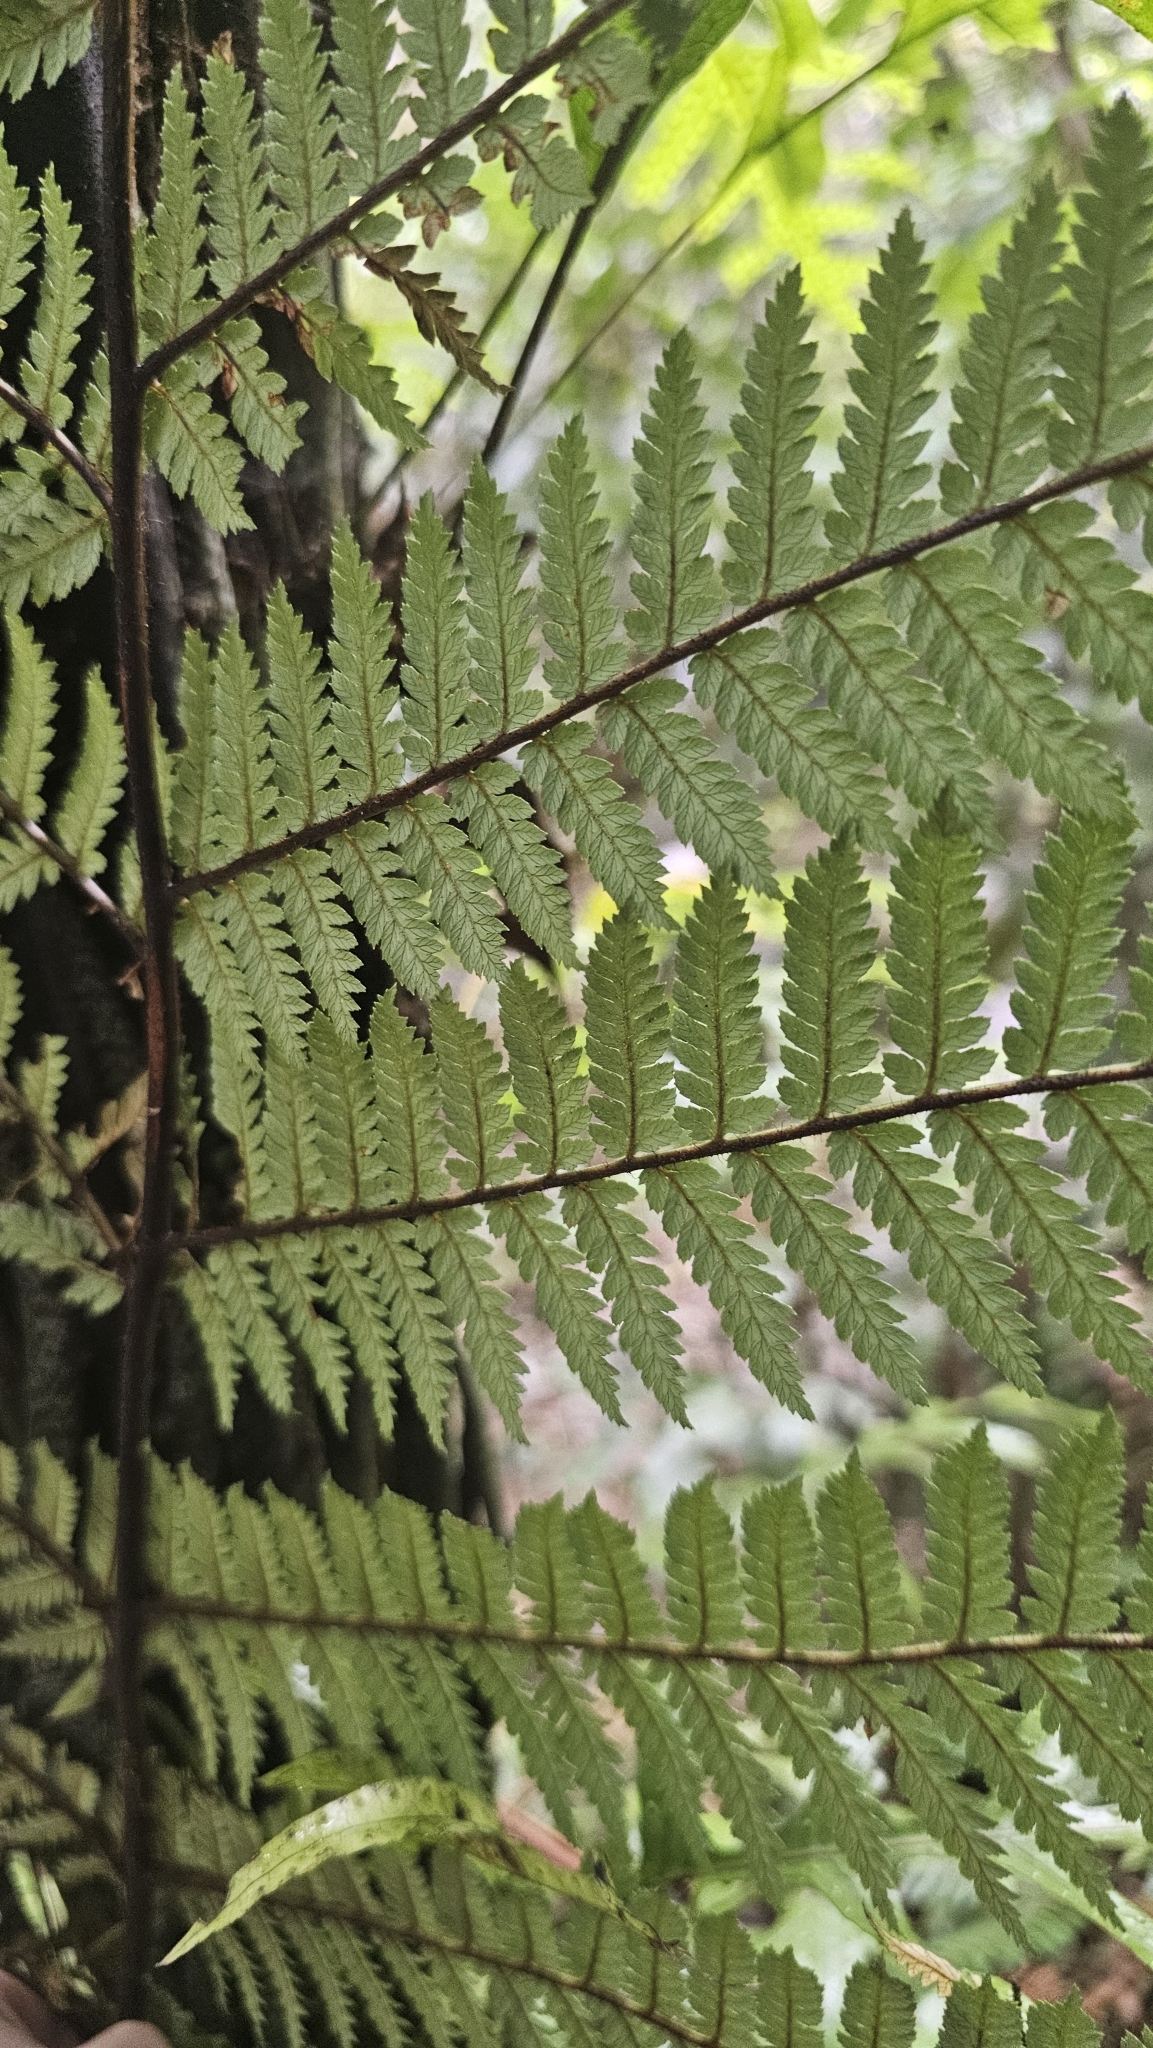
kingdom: Plantae
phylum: Tracheophyta
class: Polypodiopsida
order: Cyatheales
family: Dicksoniaceae
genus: Dicksonia
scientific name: Dicksonia squarrosa
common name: Hard treefern
